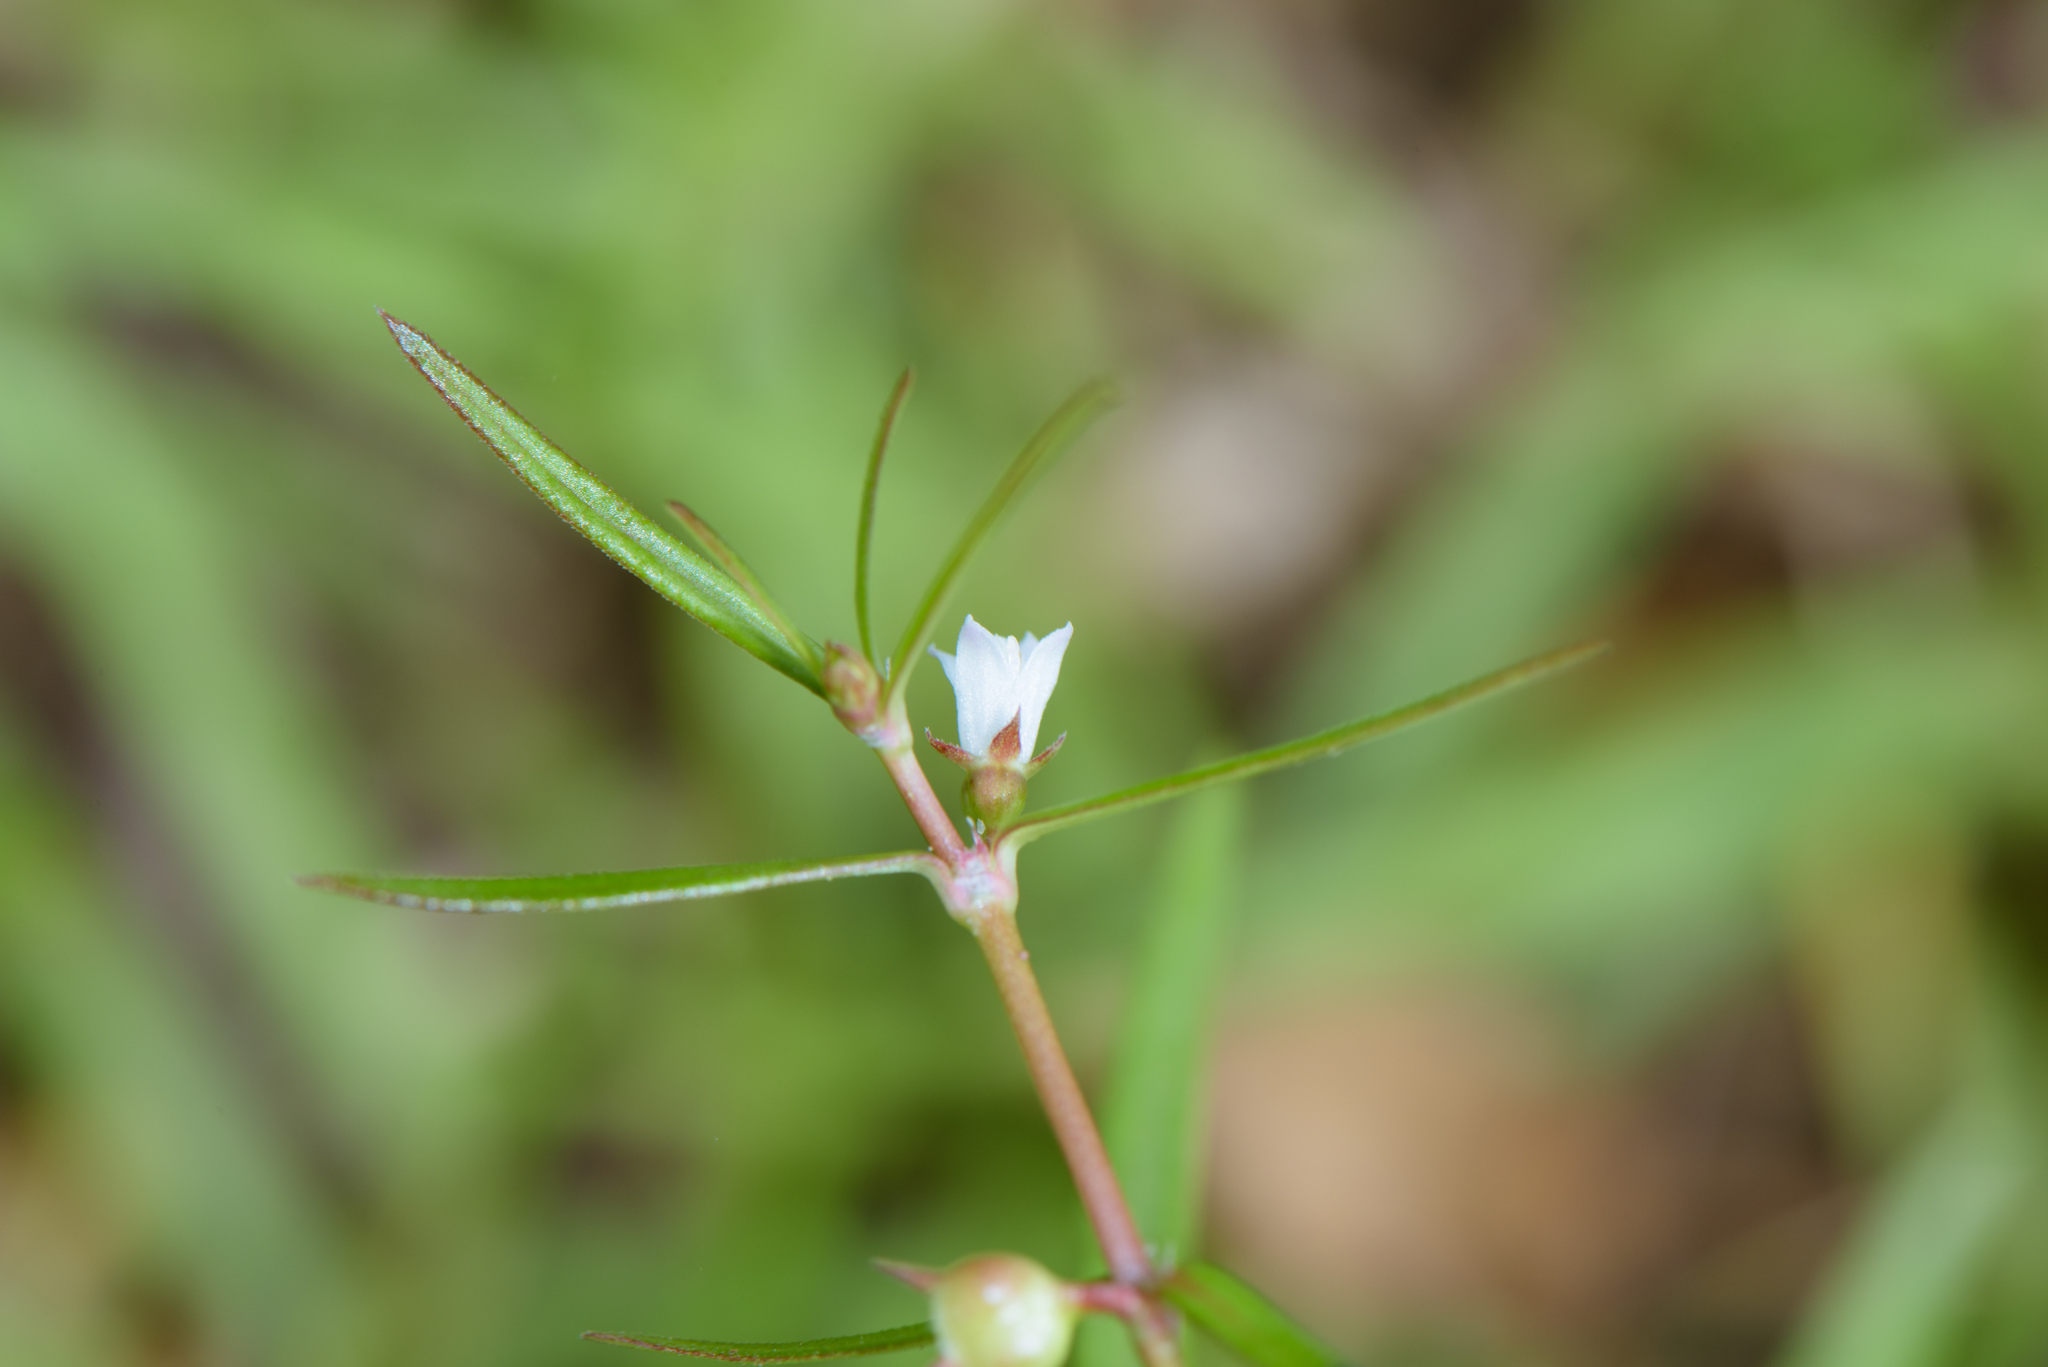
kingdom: Plantae
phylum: Tracheophyta
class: Magnoliopsida
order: Gentianales
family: Rubiaceae
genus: Scleromitrion
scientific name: Scleromitrion diffusum
